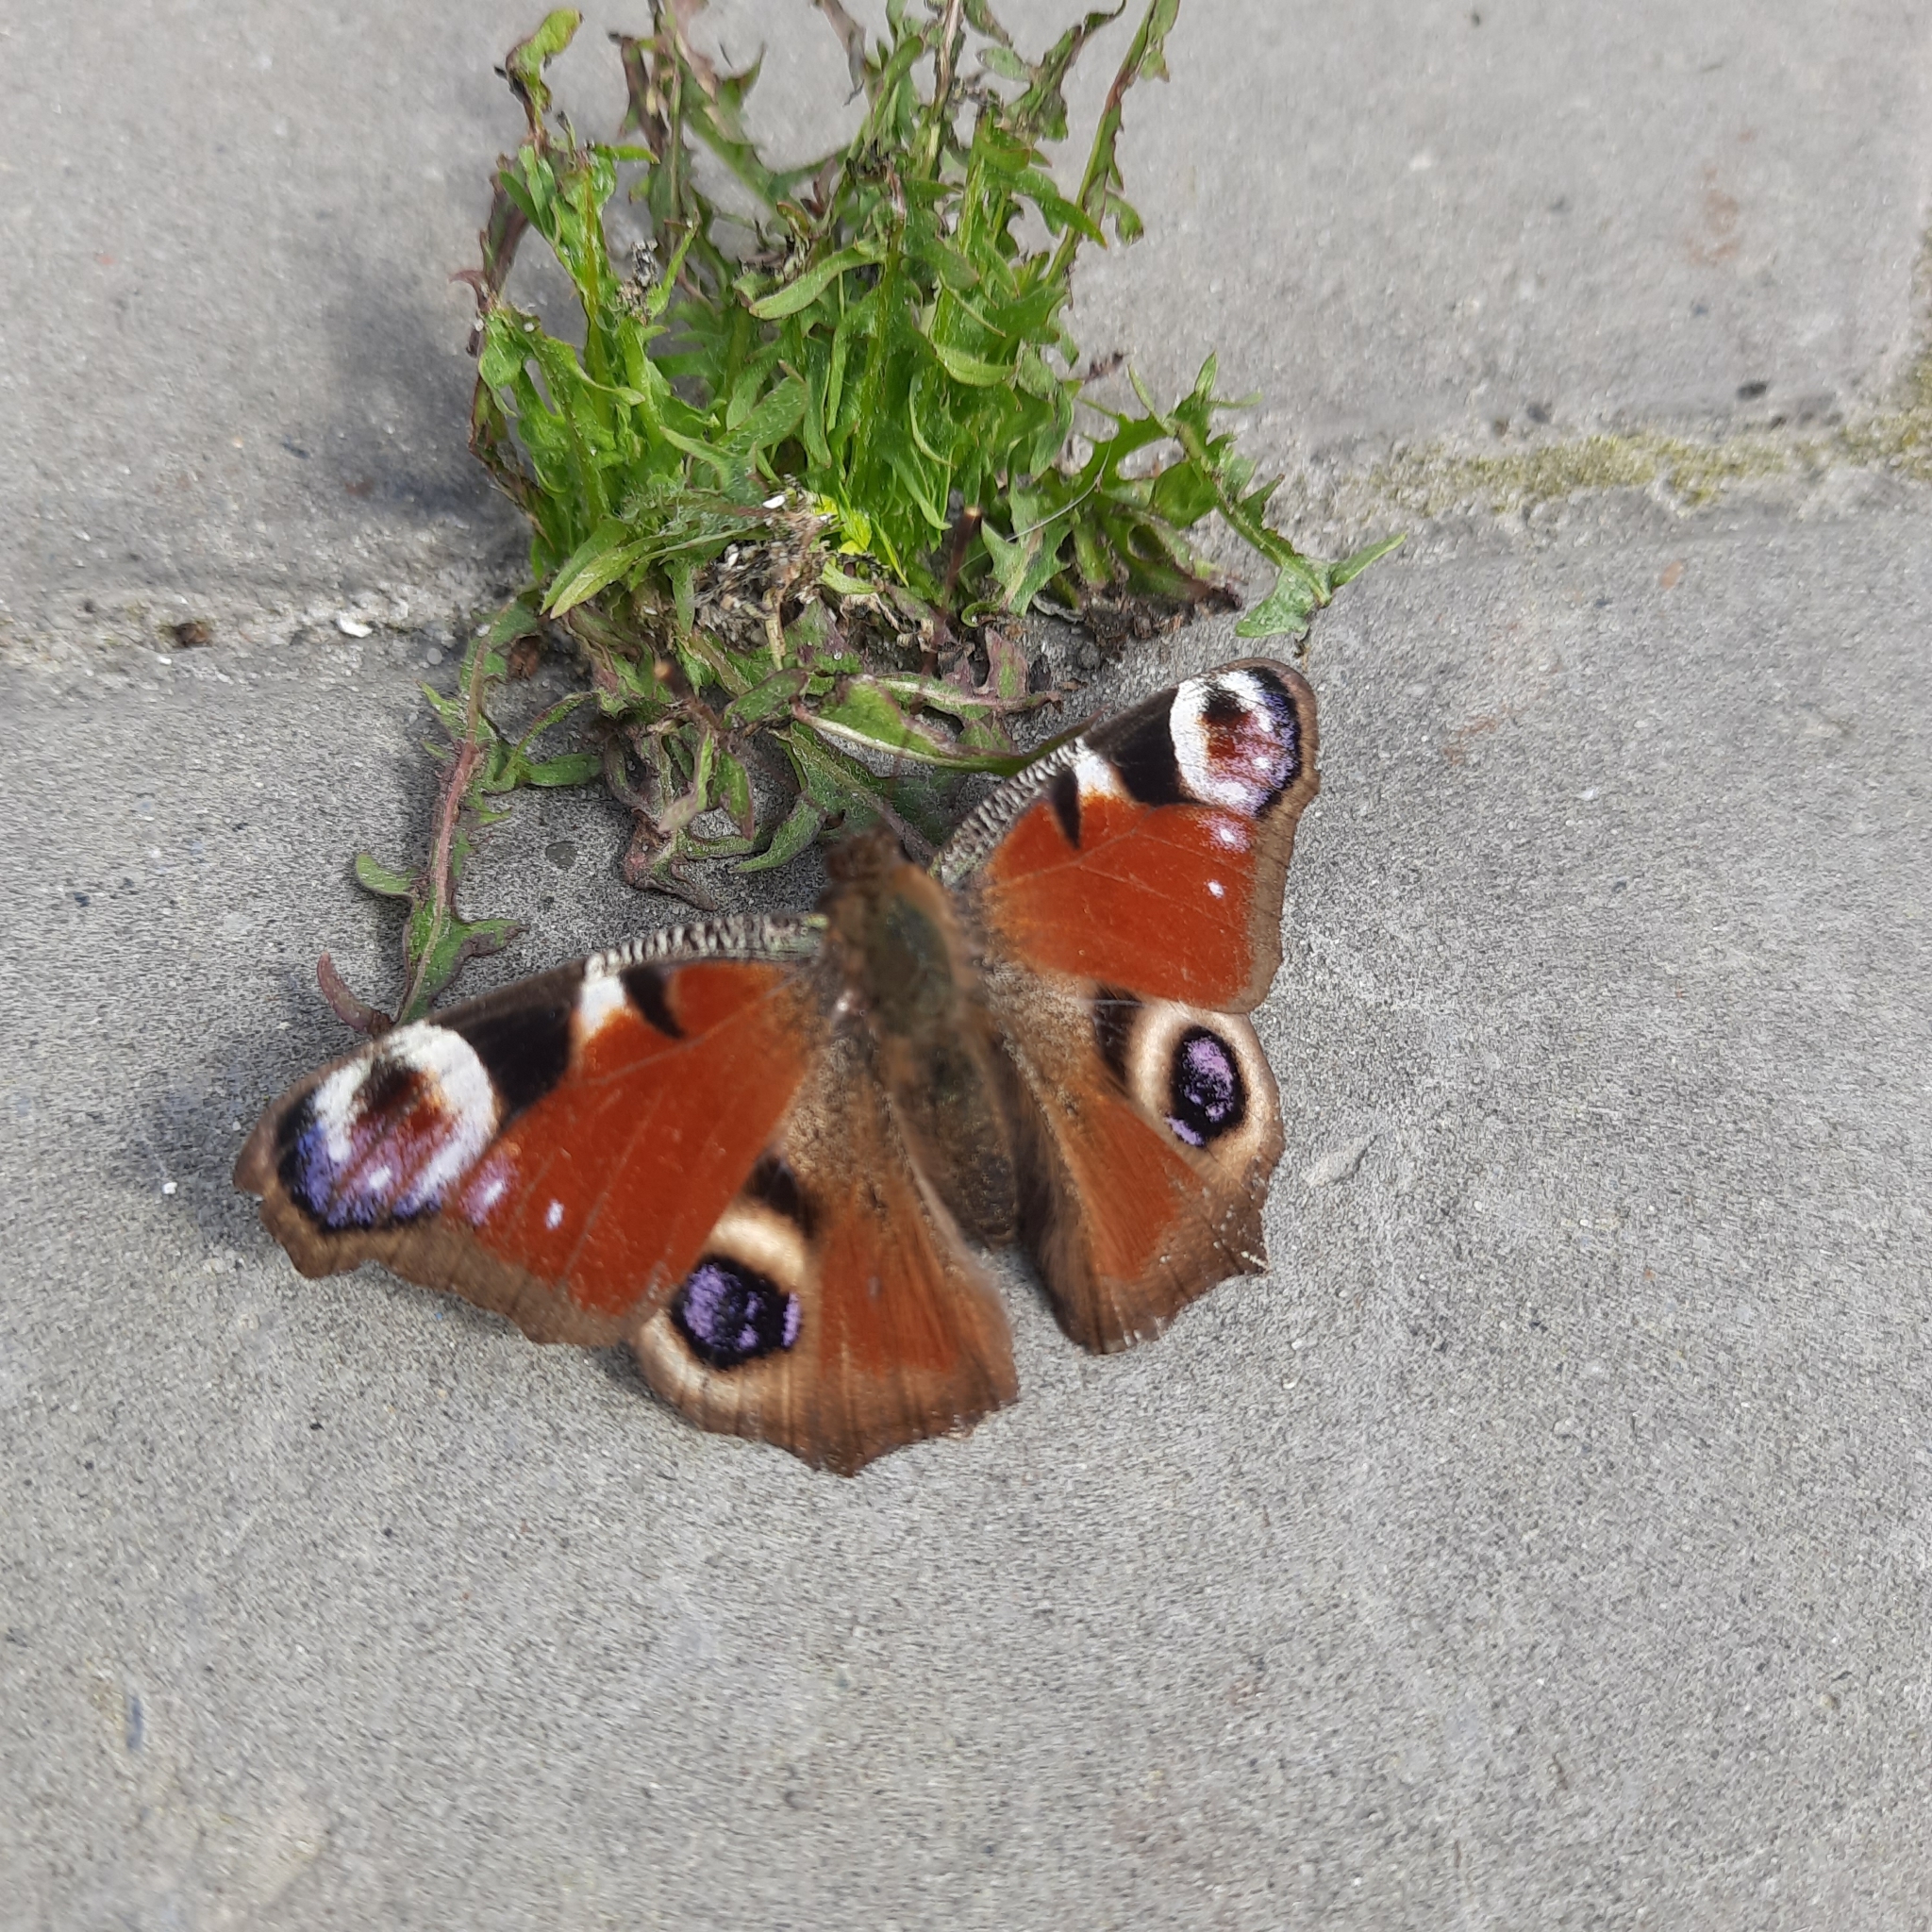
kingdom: Animalia
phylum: Arthropoda
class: Insecta
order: Lepidoptera
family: Nymphalidae
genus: Aglais
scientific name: Aglais io
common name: Peacock
